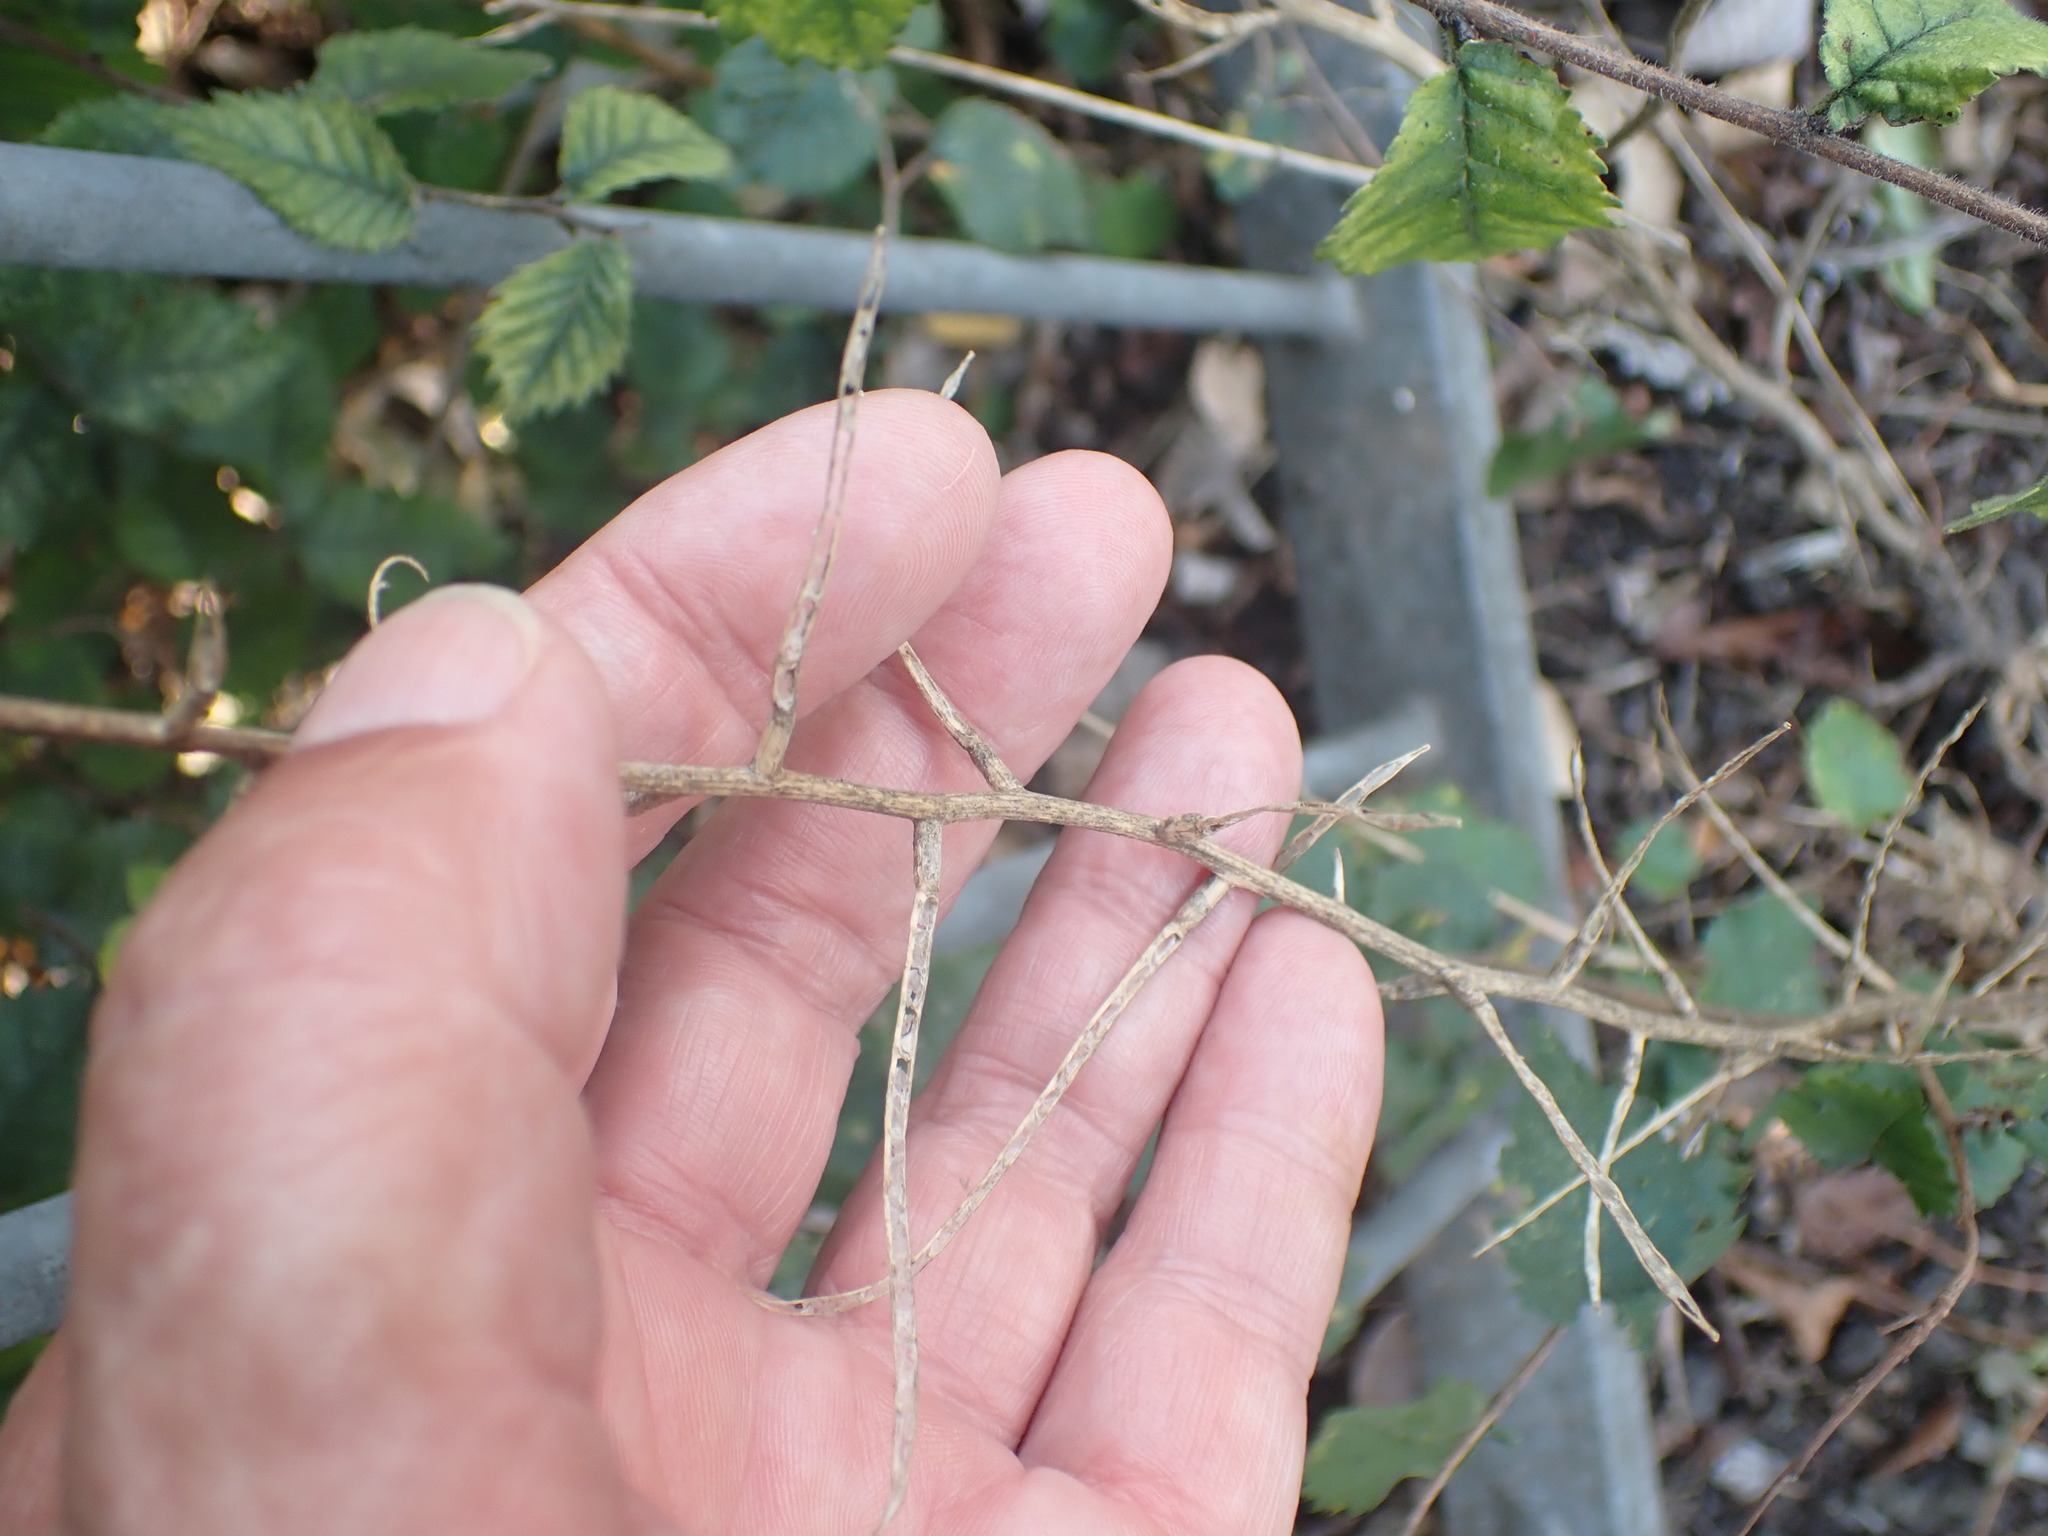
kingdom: Plantae
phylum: Tracheophyta
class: Magnoliopsida
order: Brassicales
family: Brassicaceae
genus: Alliaria
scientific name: Alliaria petiolata
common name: Garlic mustard
